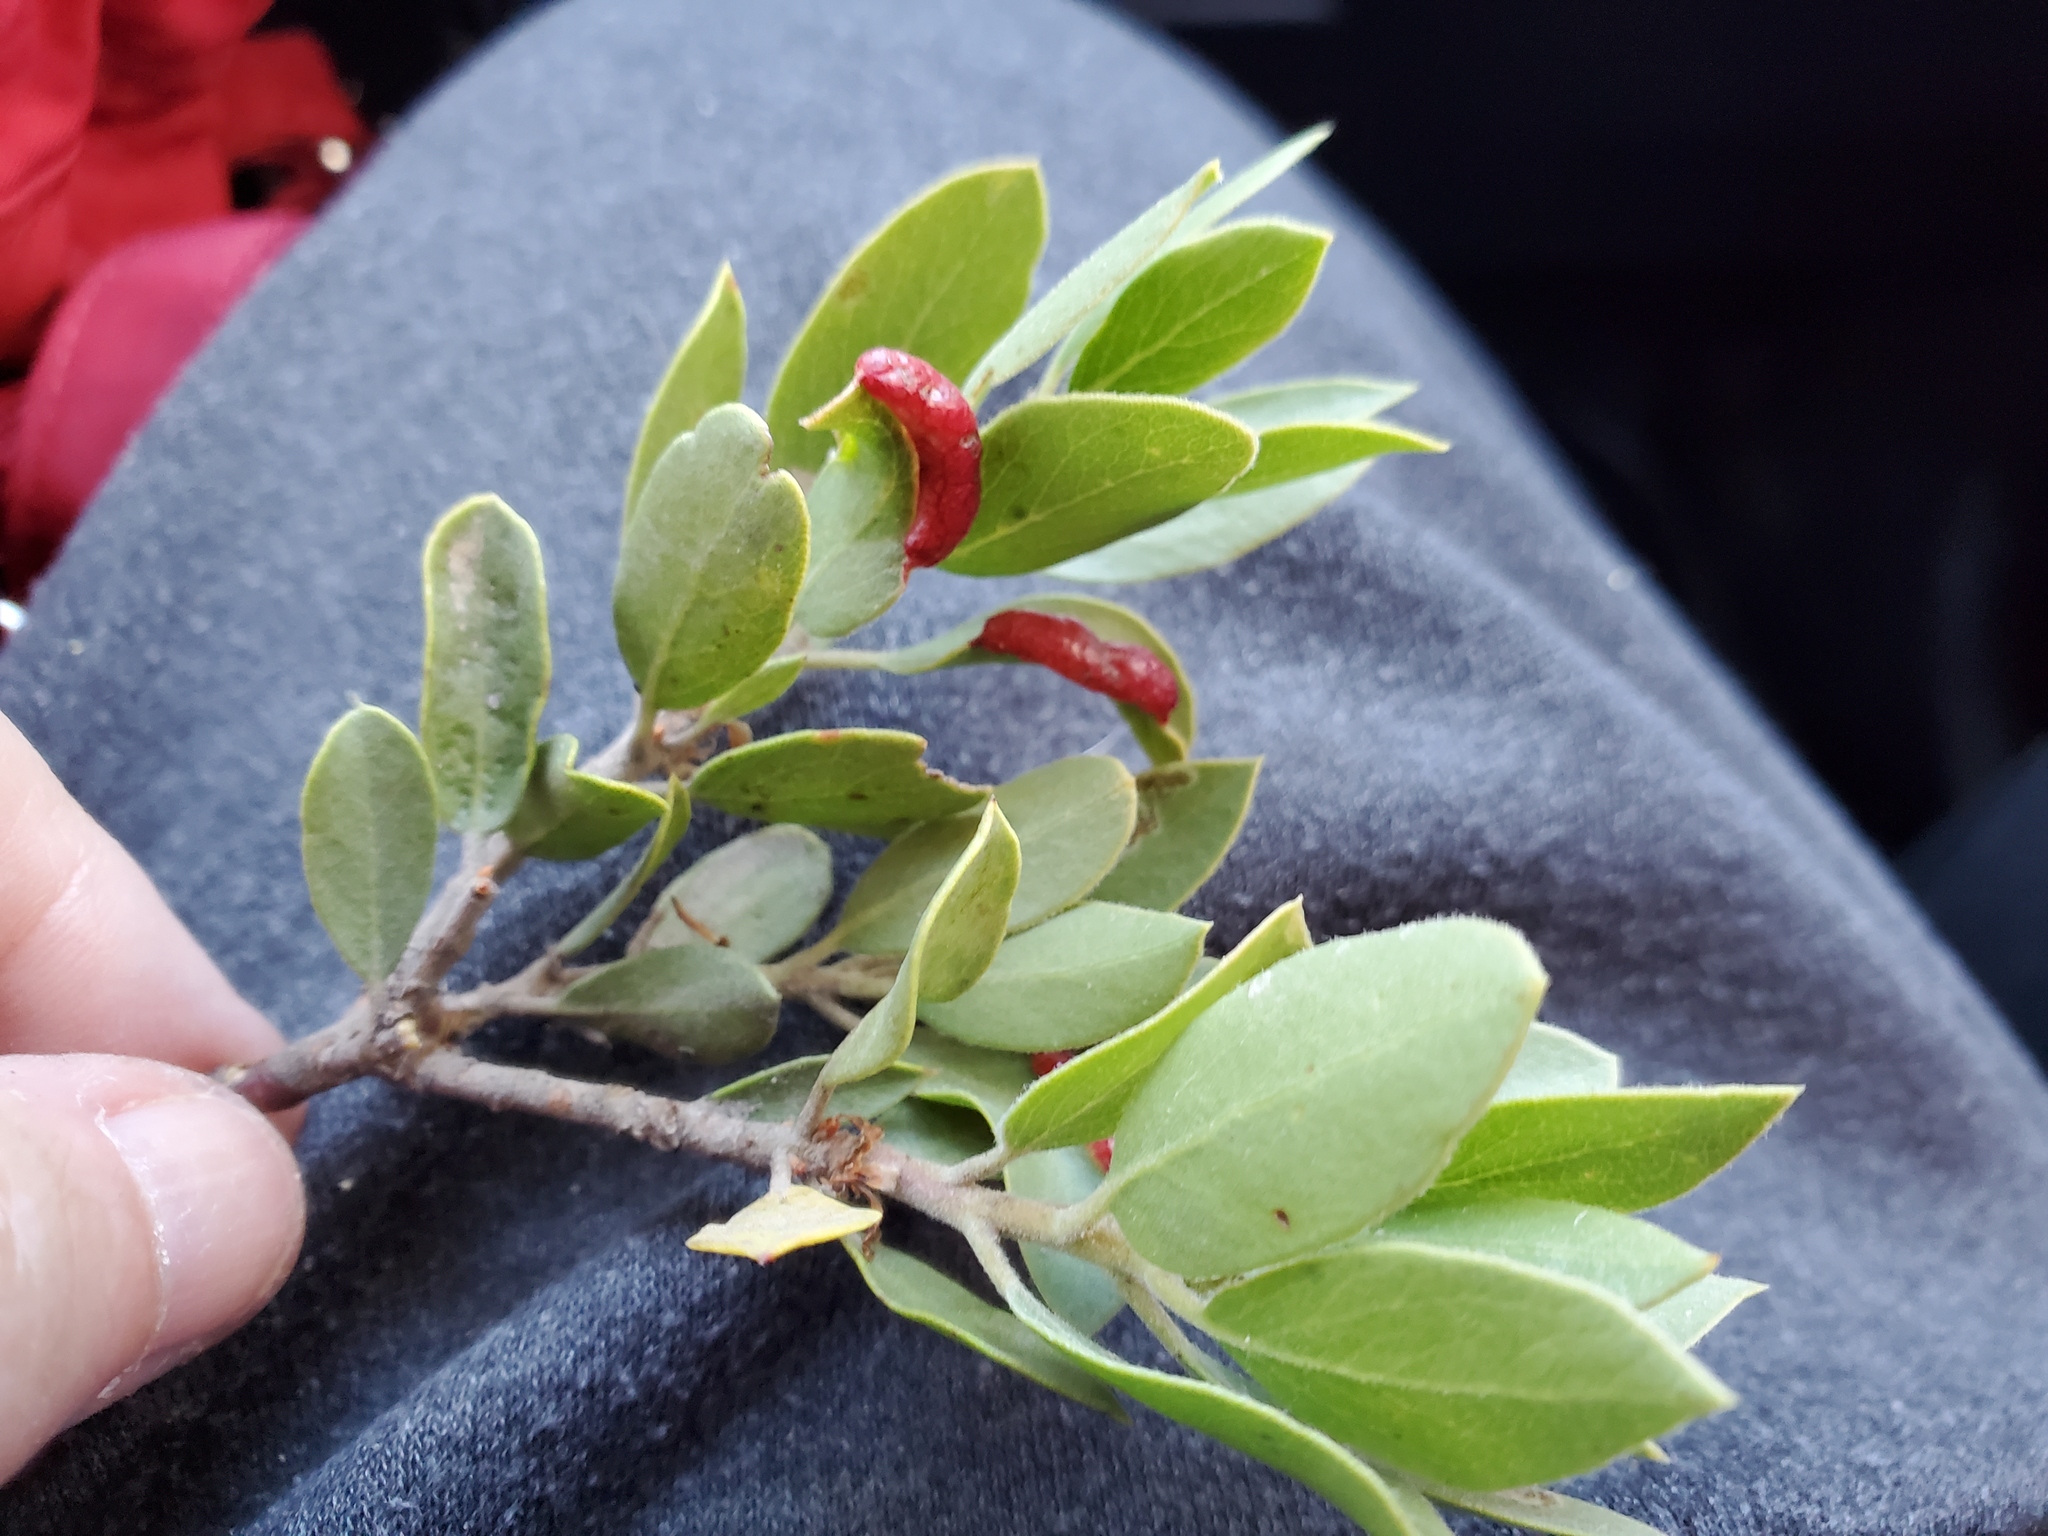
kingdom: Plantae
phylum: Tracheophyta
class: Magnoliopsida
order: Ericales
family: Ericaceae
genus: Arctostaphylos
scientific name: Arctostaphylos nevadensis
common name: Pinemat manzanita
